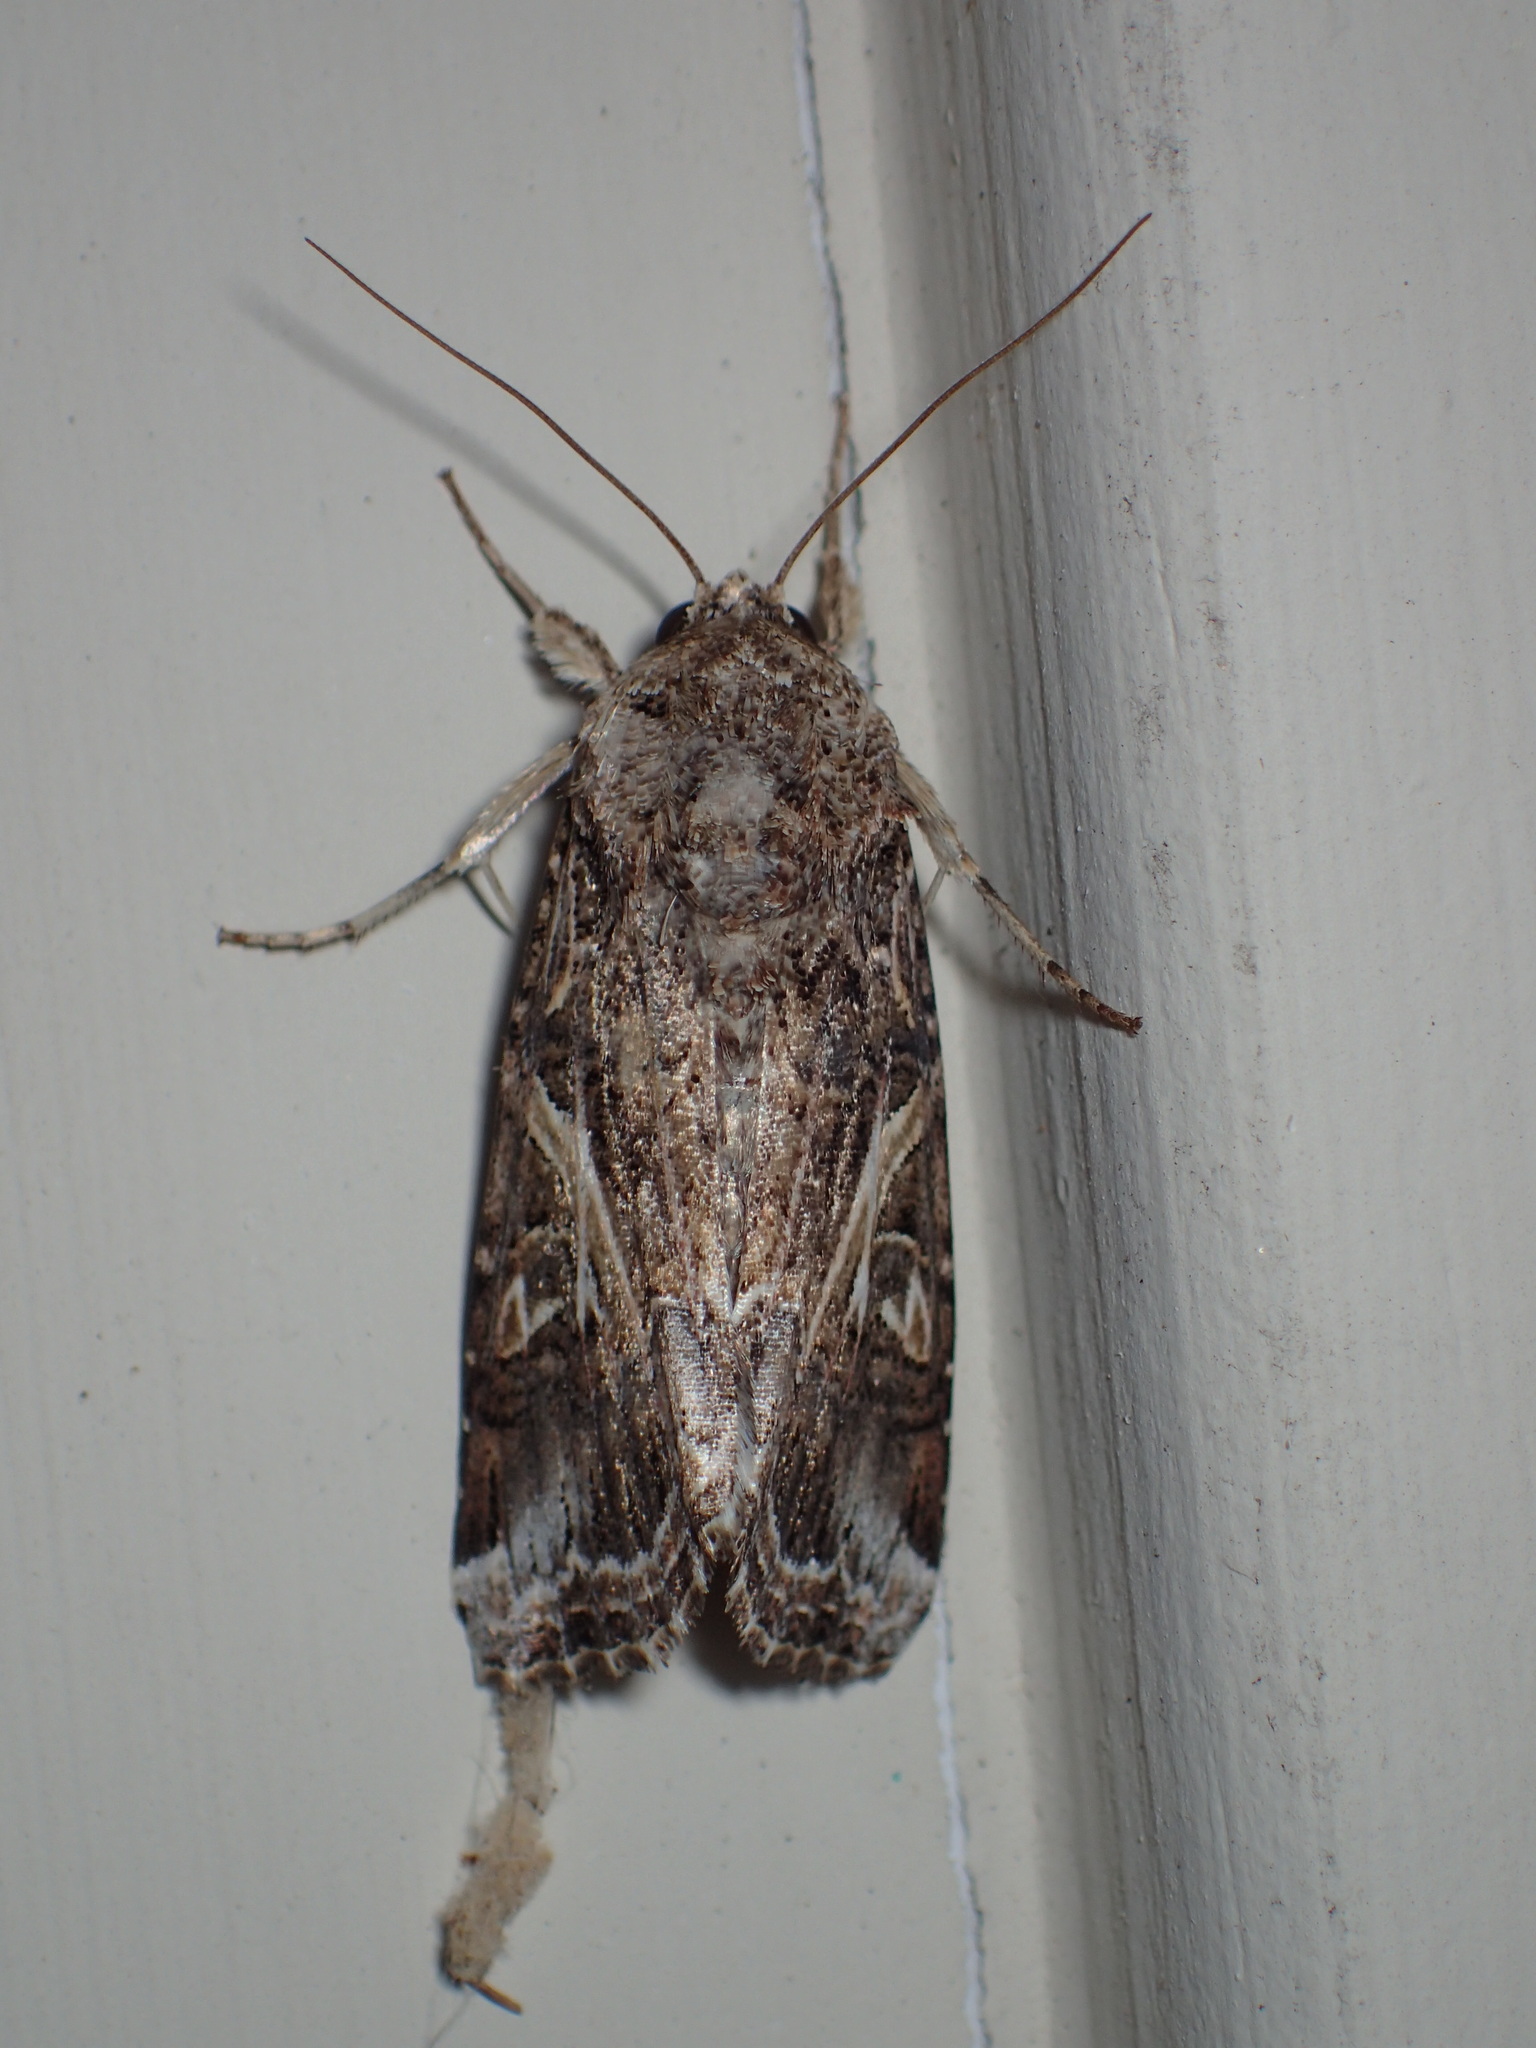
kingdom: Animalia
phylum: Arthropoda
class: Insecta
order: Lepidoptera
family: Noctuidae
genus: Spodoptera
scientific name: Spodoptera ornithogalli
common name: Yellow-striped armyworm
